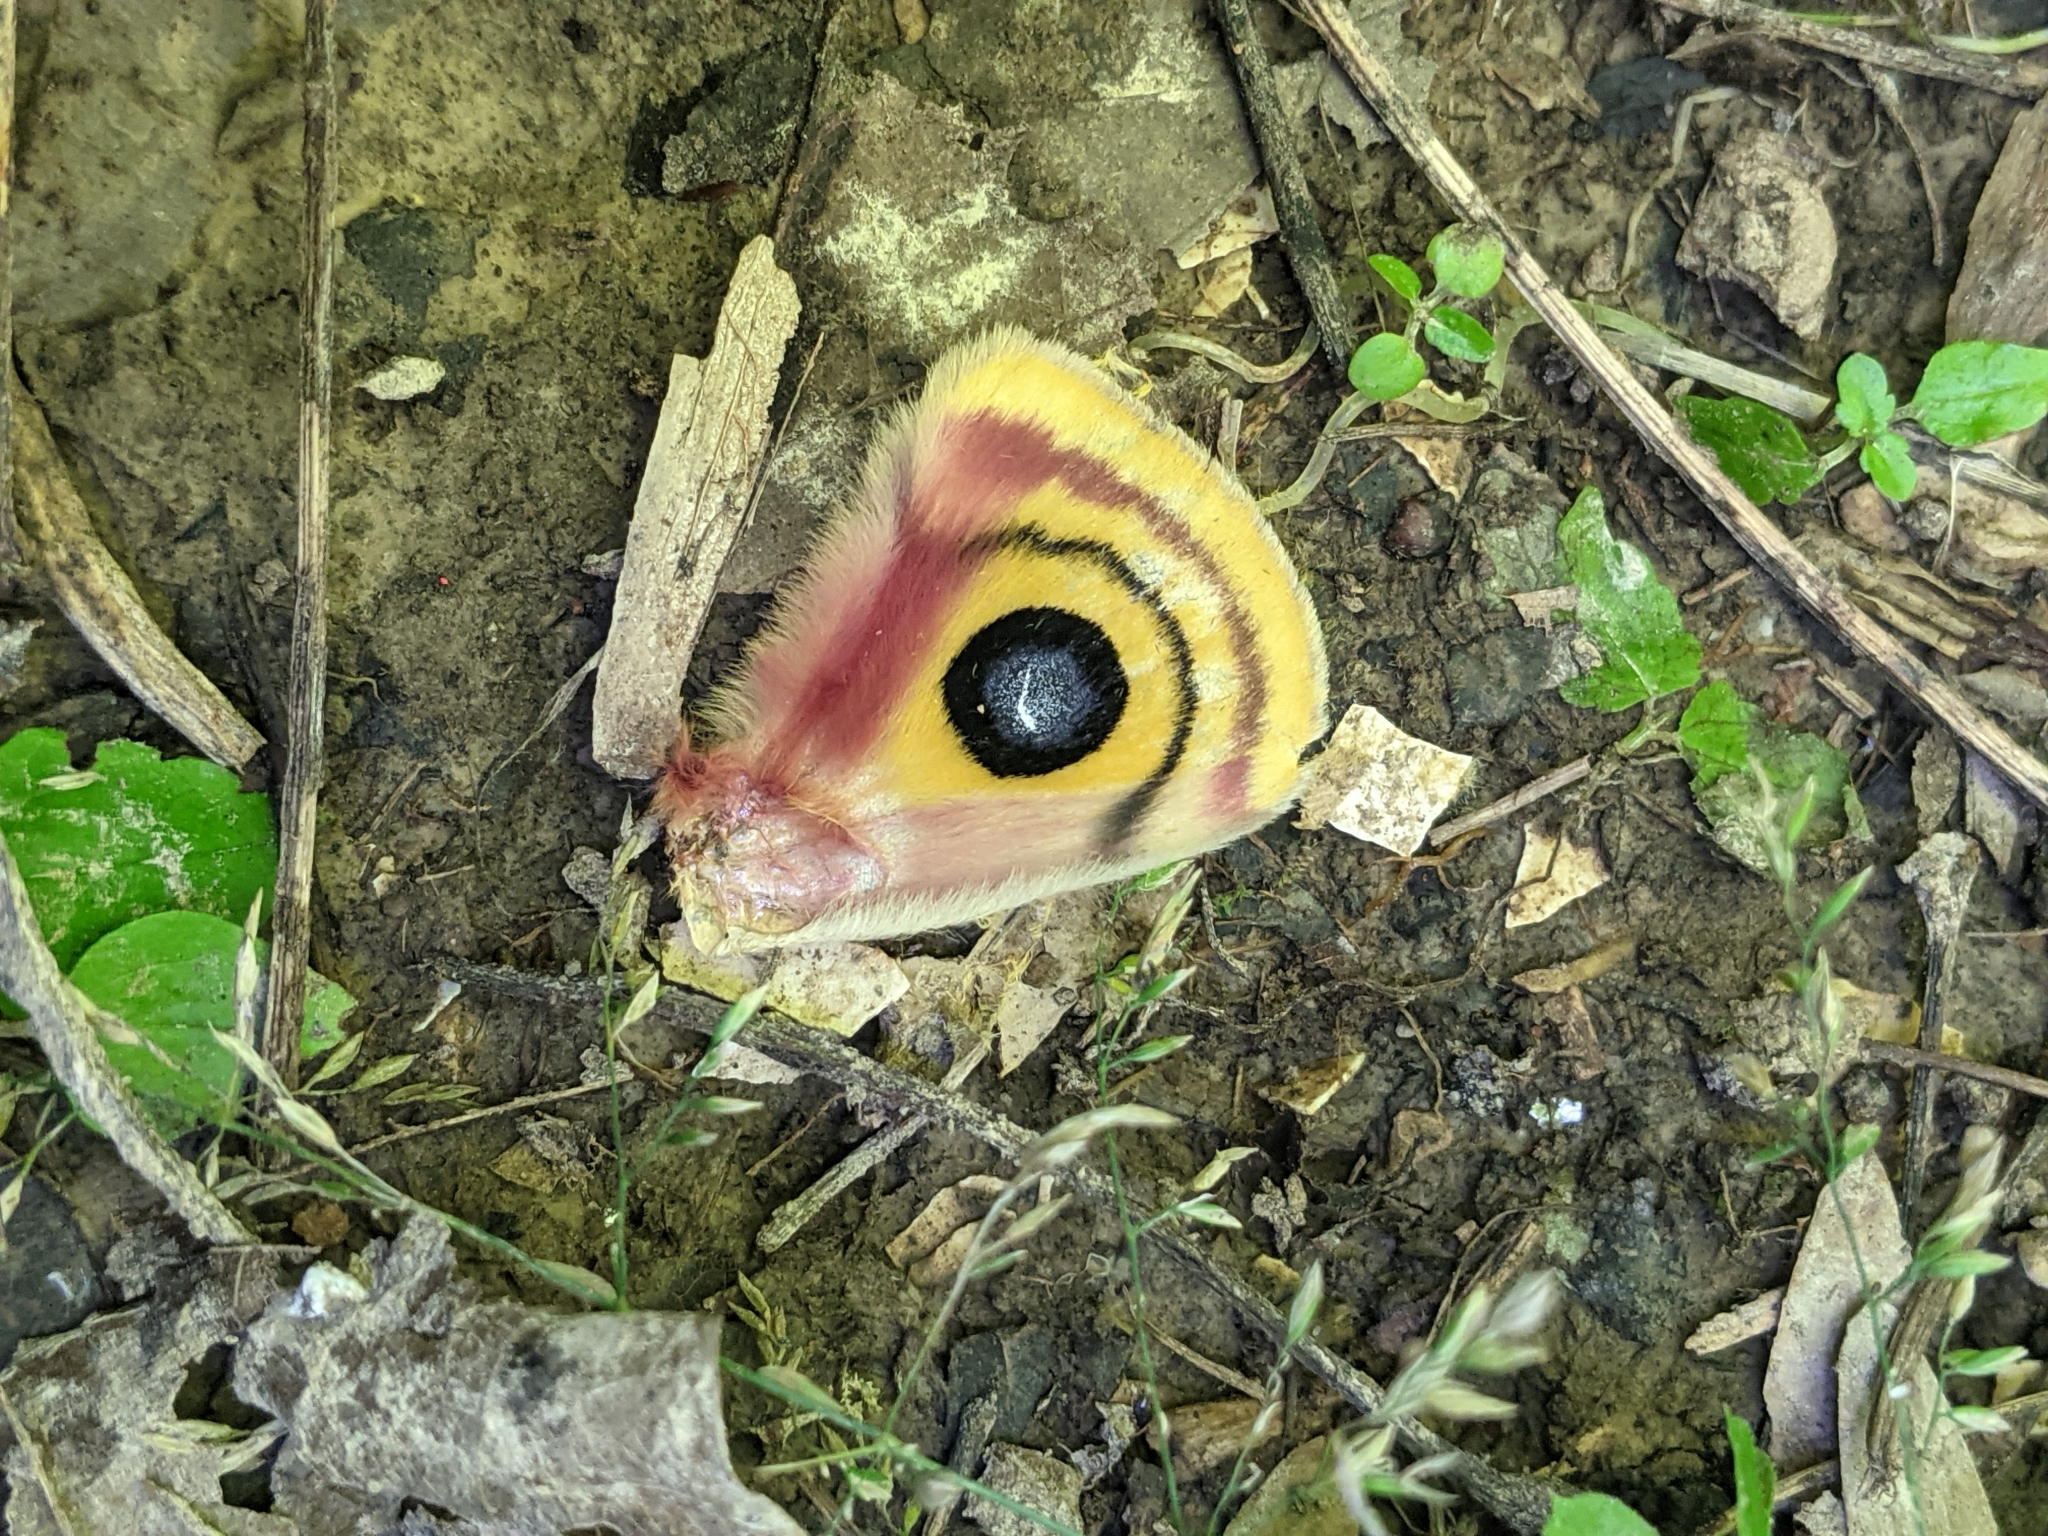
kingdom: Animalia
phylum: Arthropoda
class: Insecta
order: Lepidoptera
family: Saturniidae
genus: Automeris
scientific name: Automeris io
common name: Io moth
